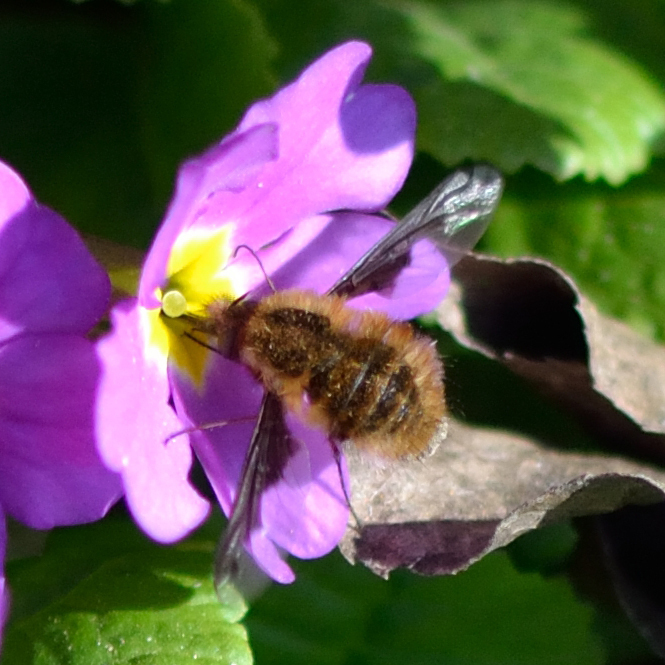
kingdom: Animalia
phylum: Arthropoda
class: Insecta
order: Diptera
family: Bombyliidae
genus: Bombylius
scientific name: Bombylius major
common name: Bee fly
